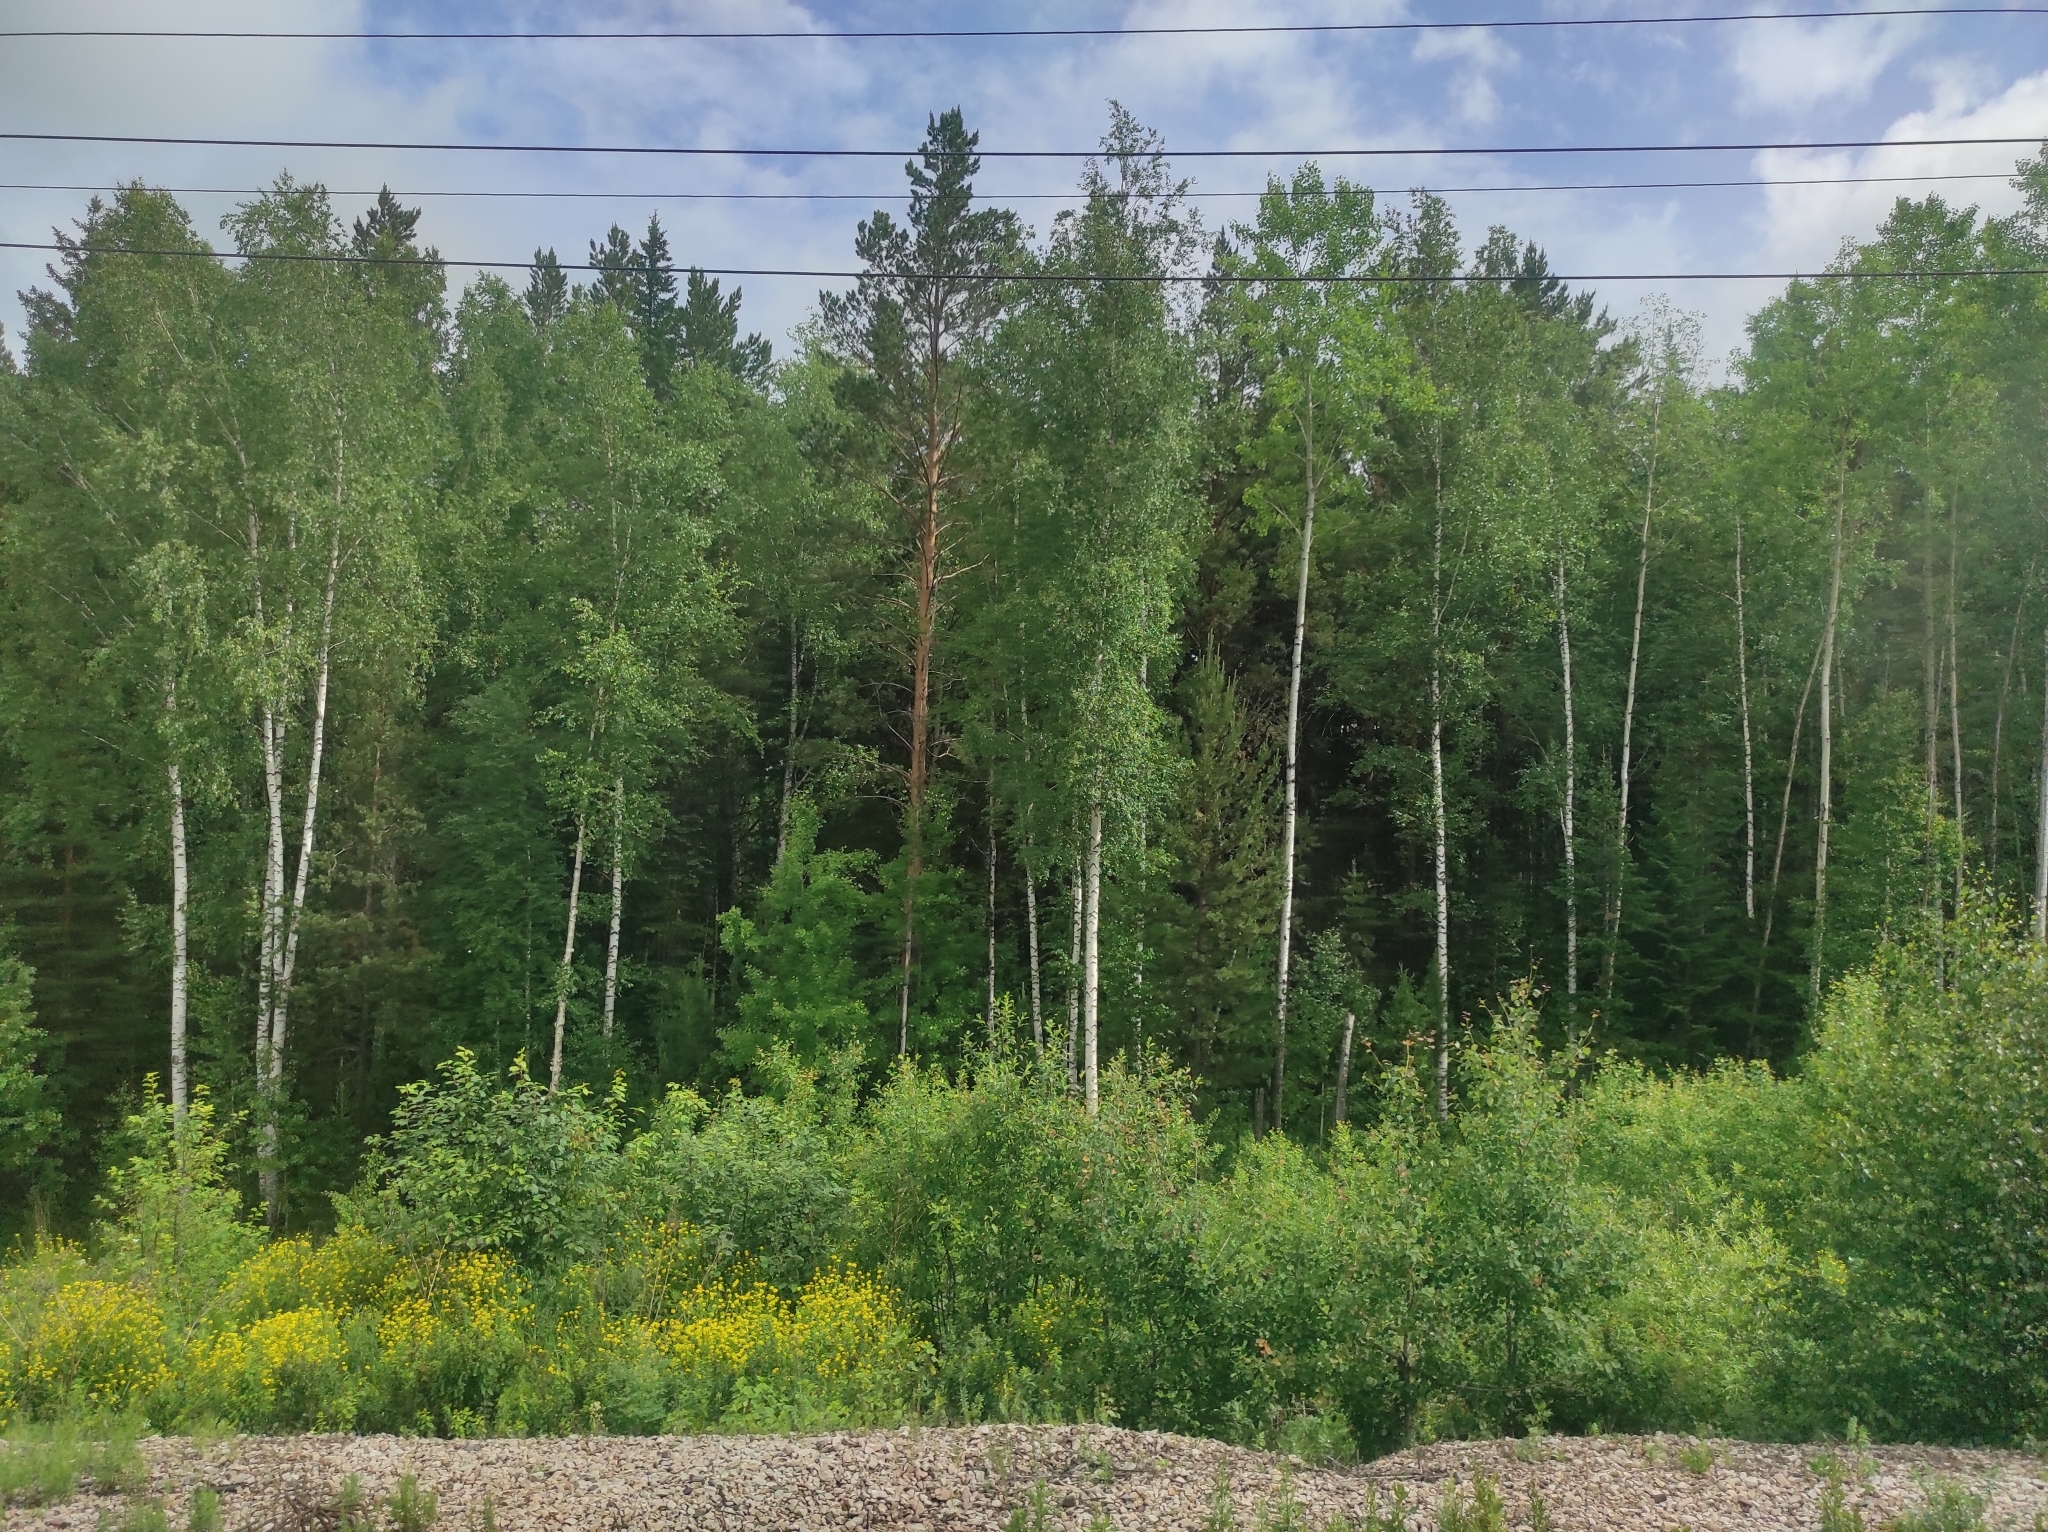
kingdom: Plantae
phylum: Tracheophyta
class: Pinopsida
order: Pinales
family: Pinaceae
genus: Pinus
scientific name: Pinus sylvestris
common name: Scots pine
